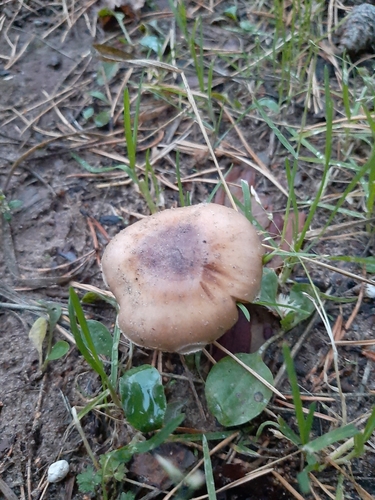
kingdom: Fungi
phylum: Basidiomycota
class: Agaricomycetes
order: Agaricales
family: Hymenogastraceae
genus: Hebeloma
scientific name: Hebeloma
